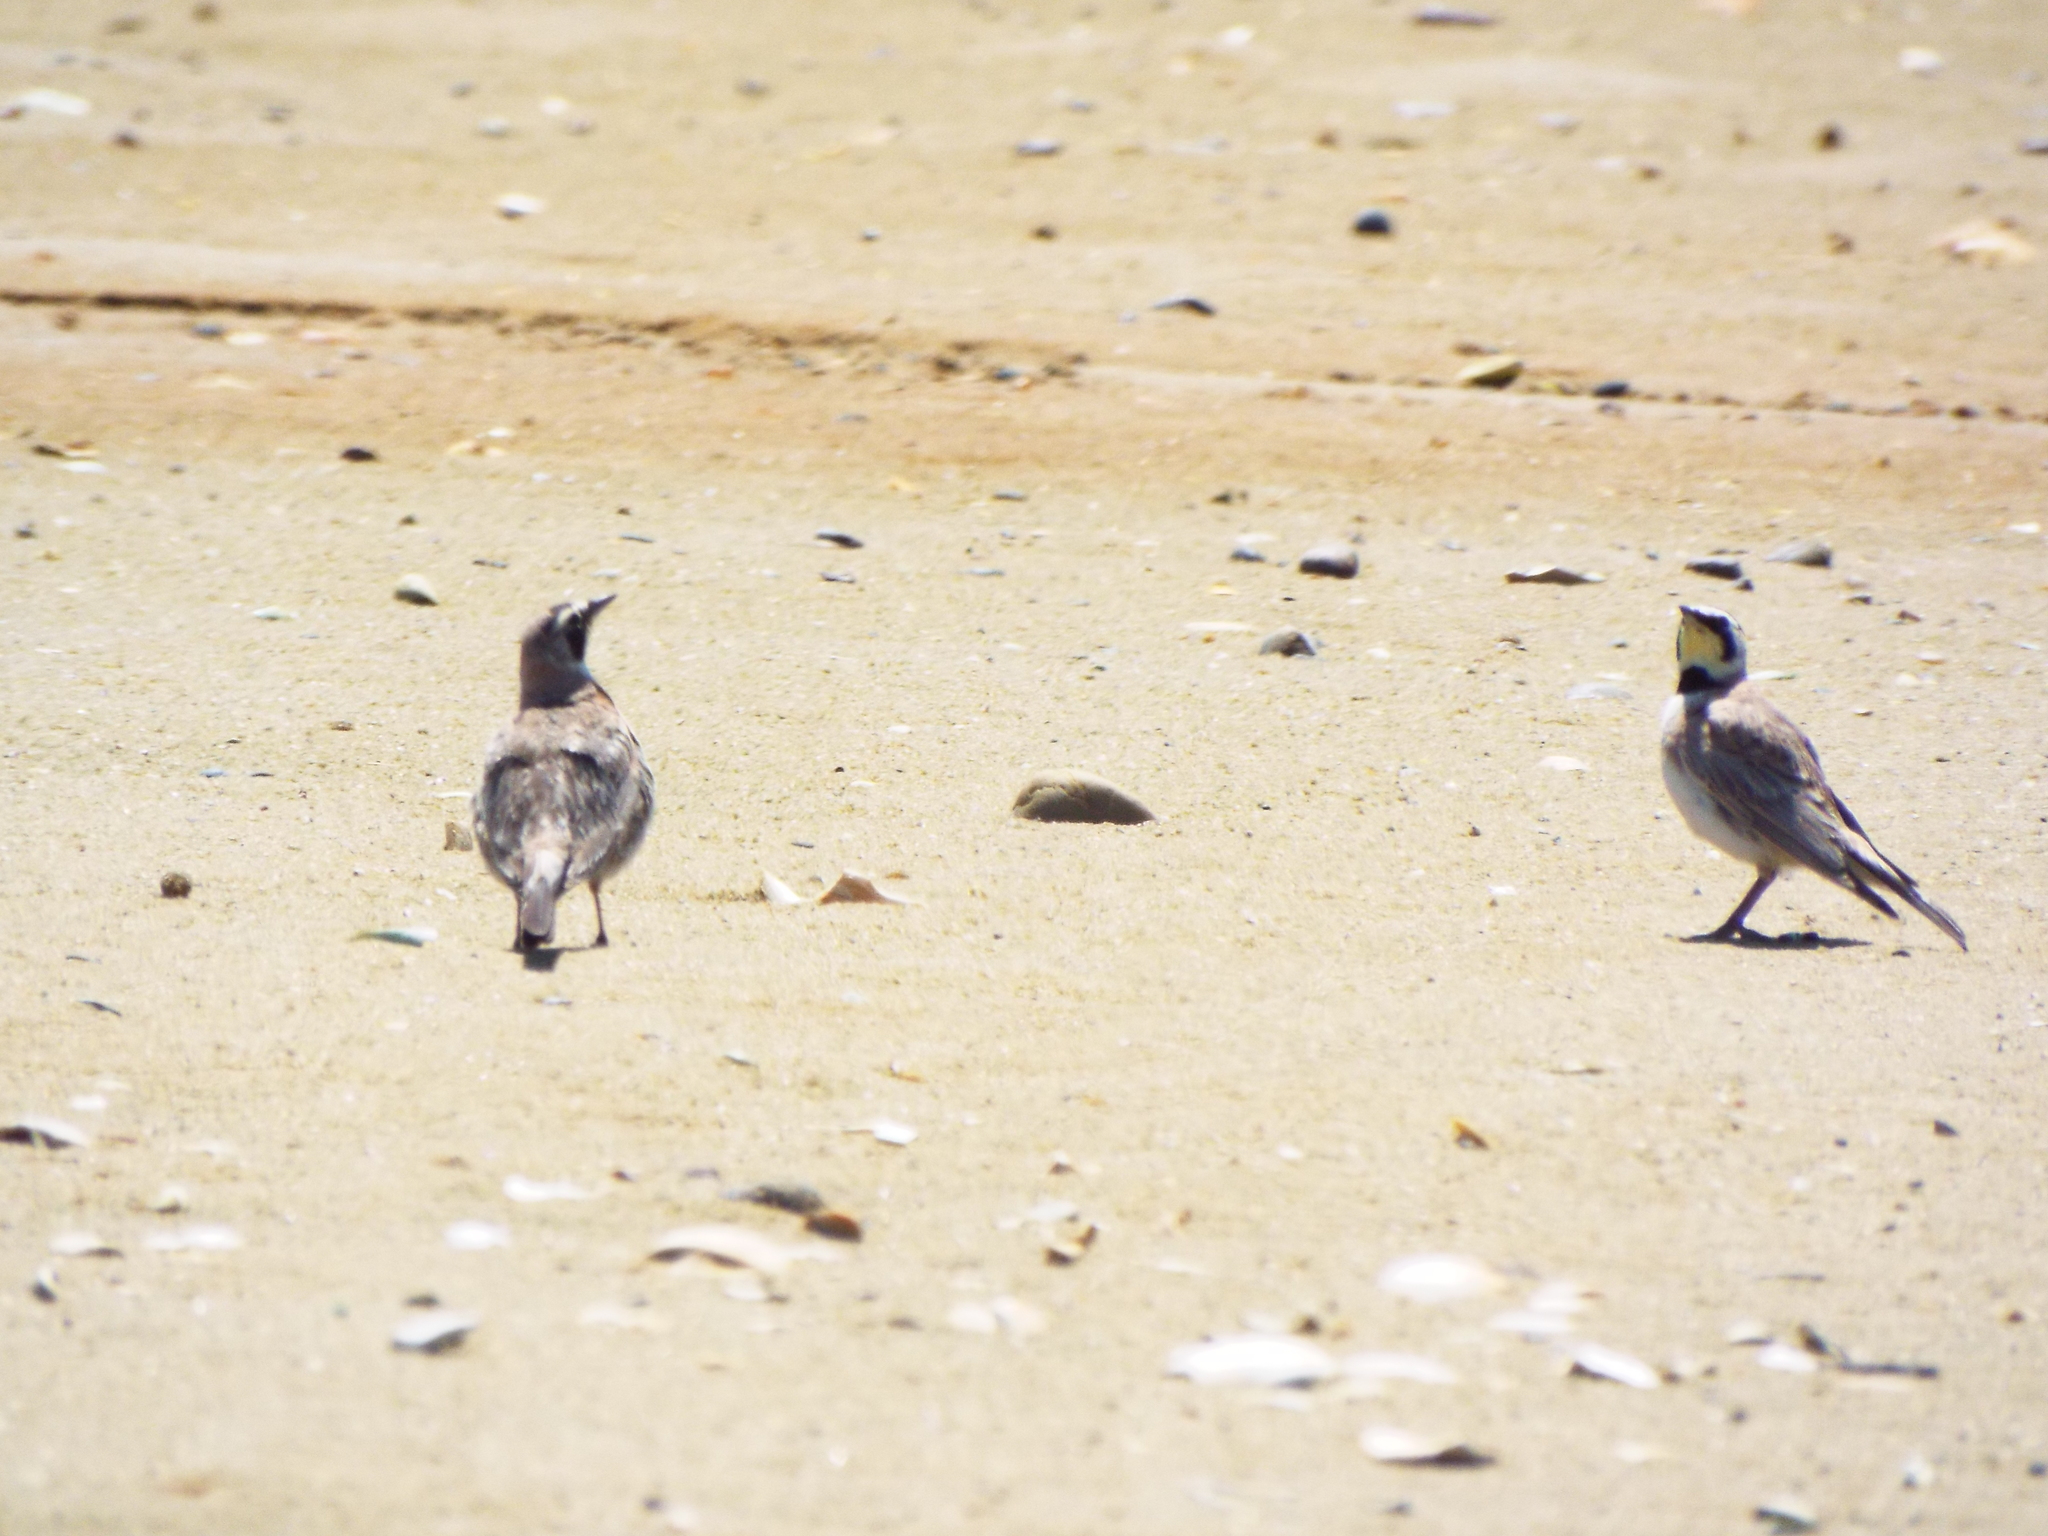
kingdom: Animalia
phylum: Chordata
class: Aves
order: Passeriformes
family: Alaudidae
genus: Eremophila
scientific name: Eremophila alpestris
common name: Horned lark
